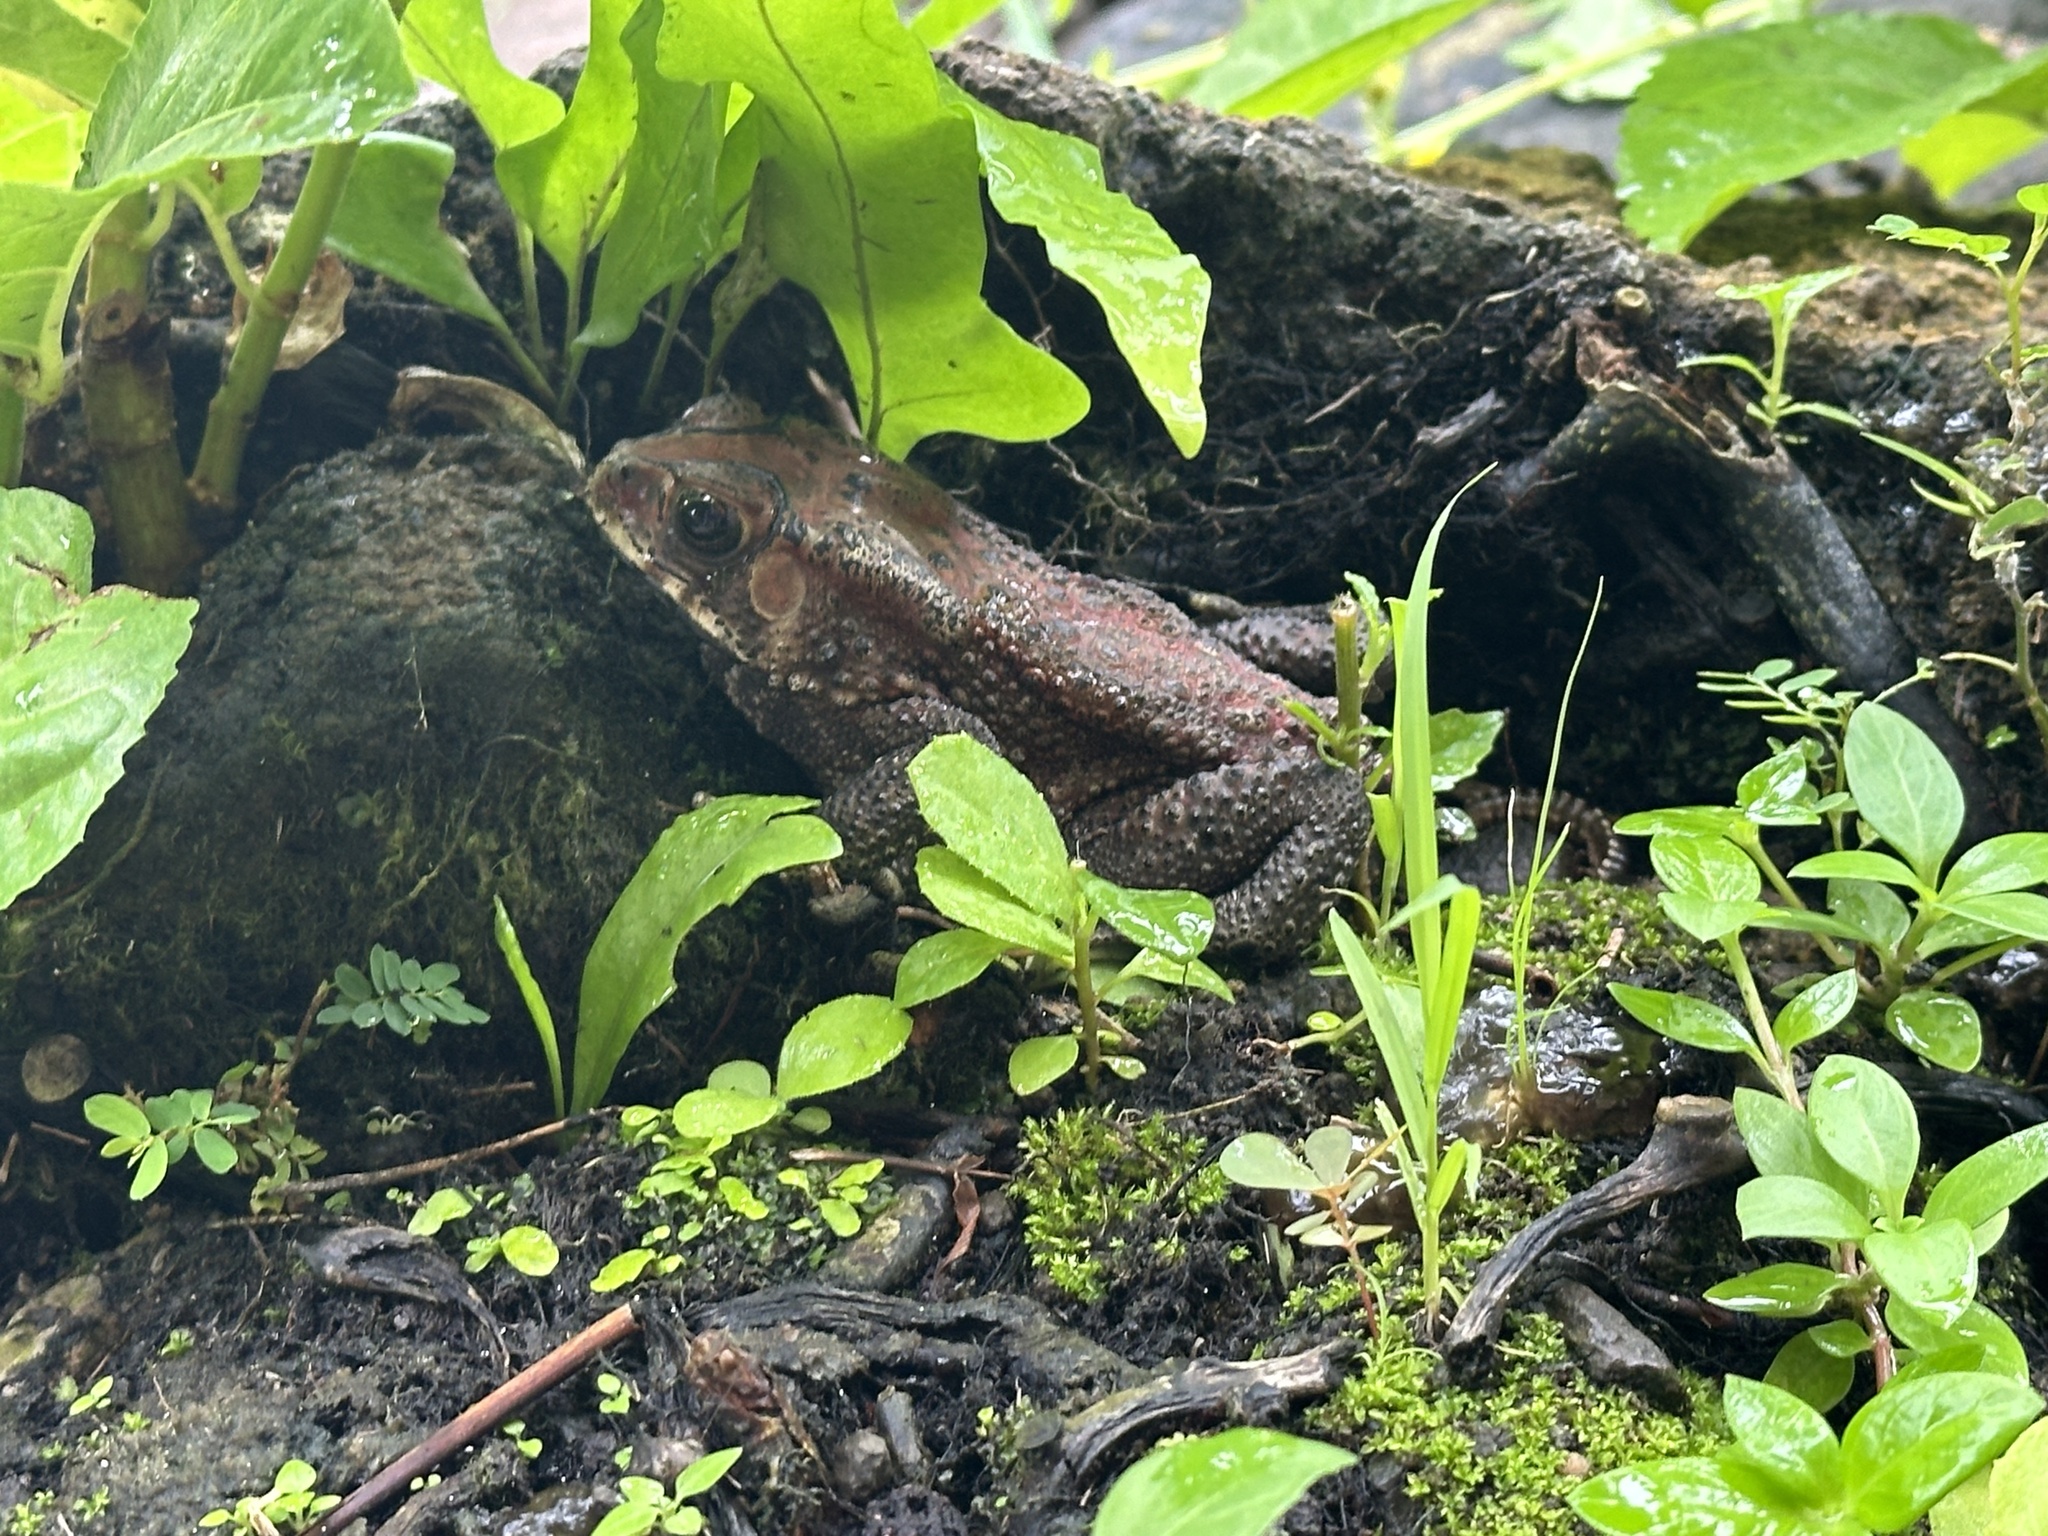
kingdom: Animalia
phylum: Chordata
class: Amphibia
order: Anura
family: Bufonidae
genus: Duttaphrynus
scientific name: Duttaphrynus melanostictus
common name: Common sunda toad
